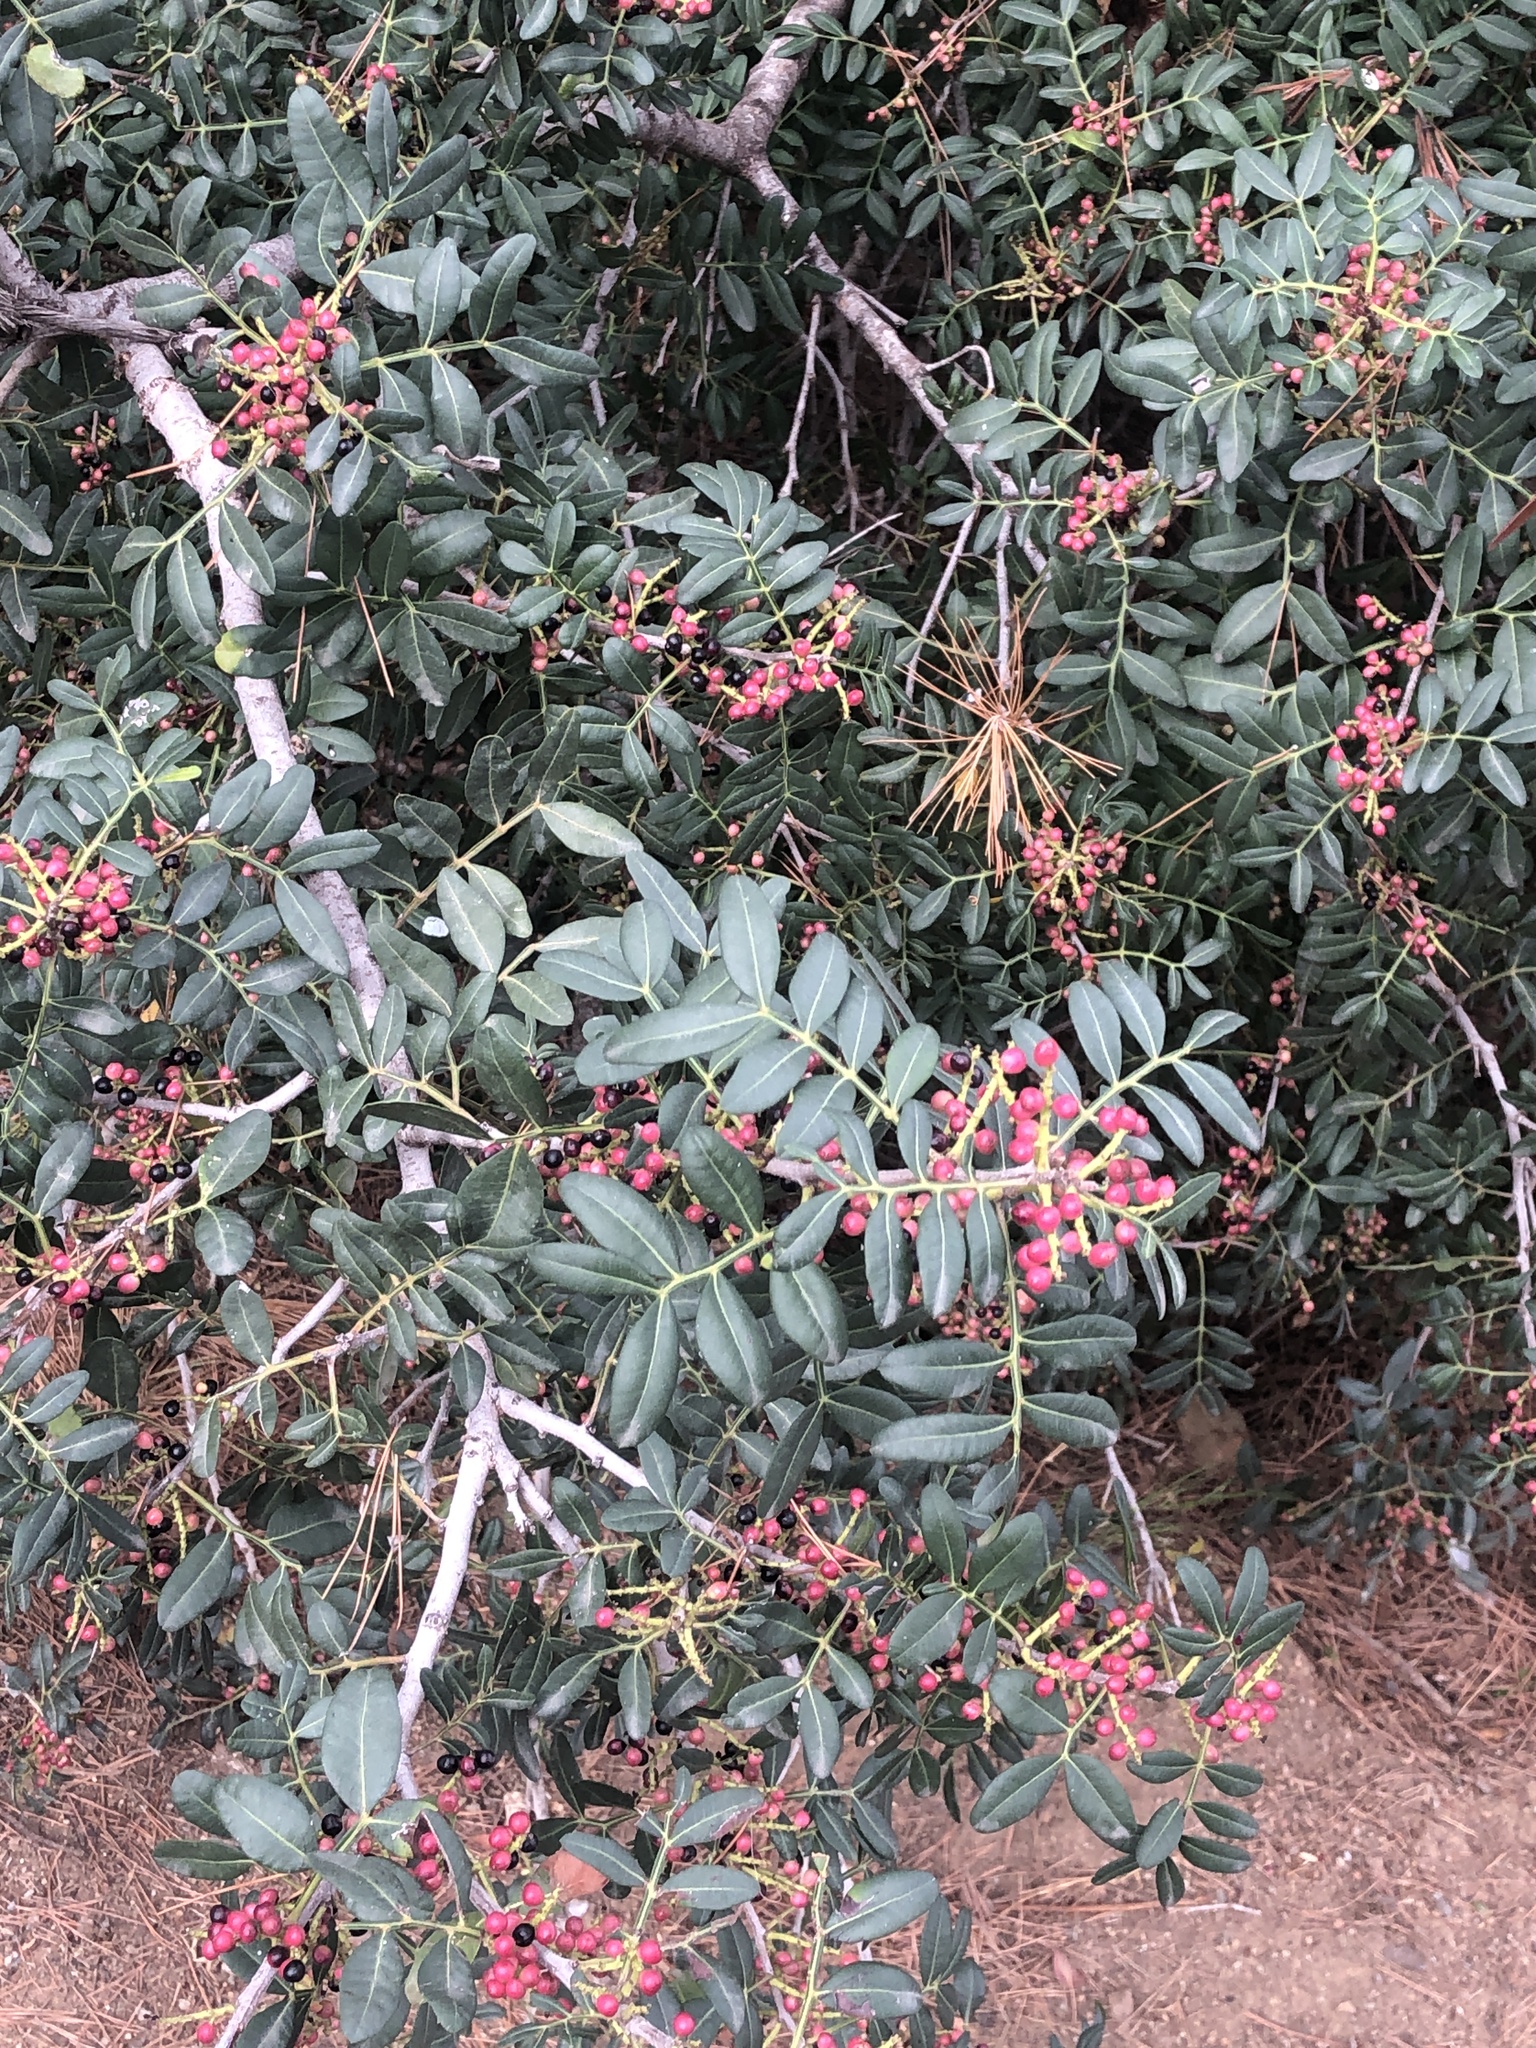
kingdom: Plantae
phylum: Tracheophyta
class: Magnoliopsida
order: Sapindales
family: Anacardiaceae
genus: Pistacia
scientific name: Pistacia lentiscus
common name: Lentisk
